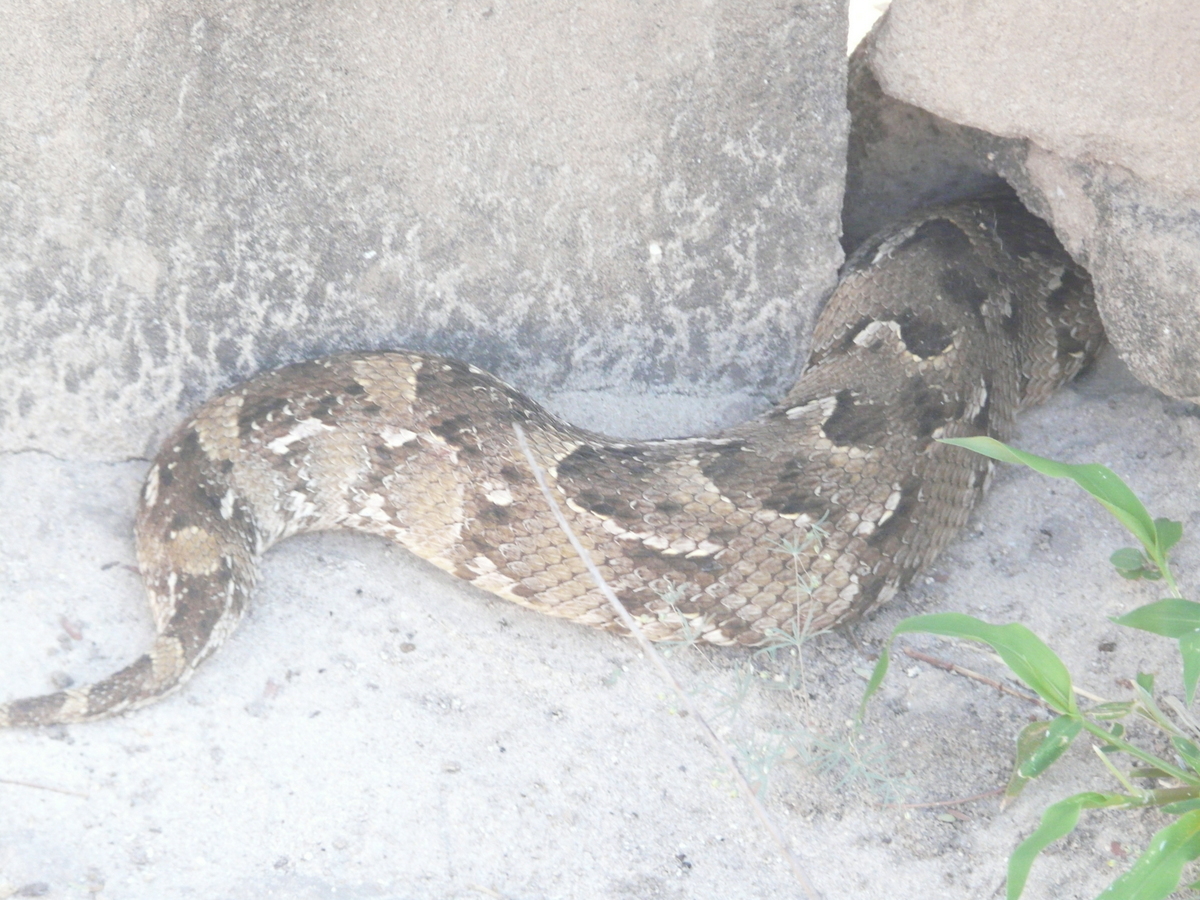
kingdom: Animalia
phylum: Chordata
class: Squamata
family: Viperidae
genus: Bitis
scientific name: Bitis arietans
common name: Puff adder
